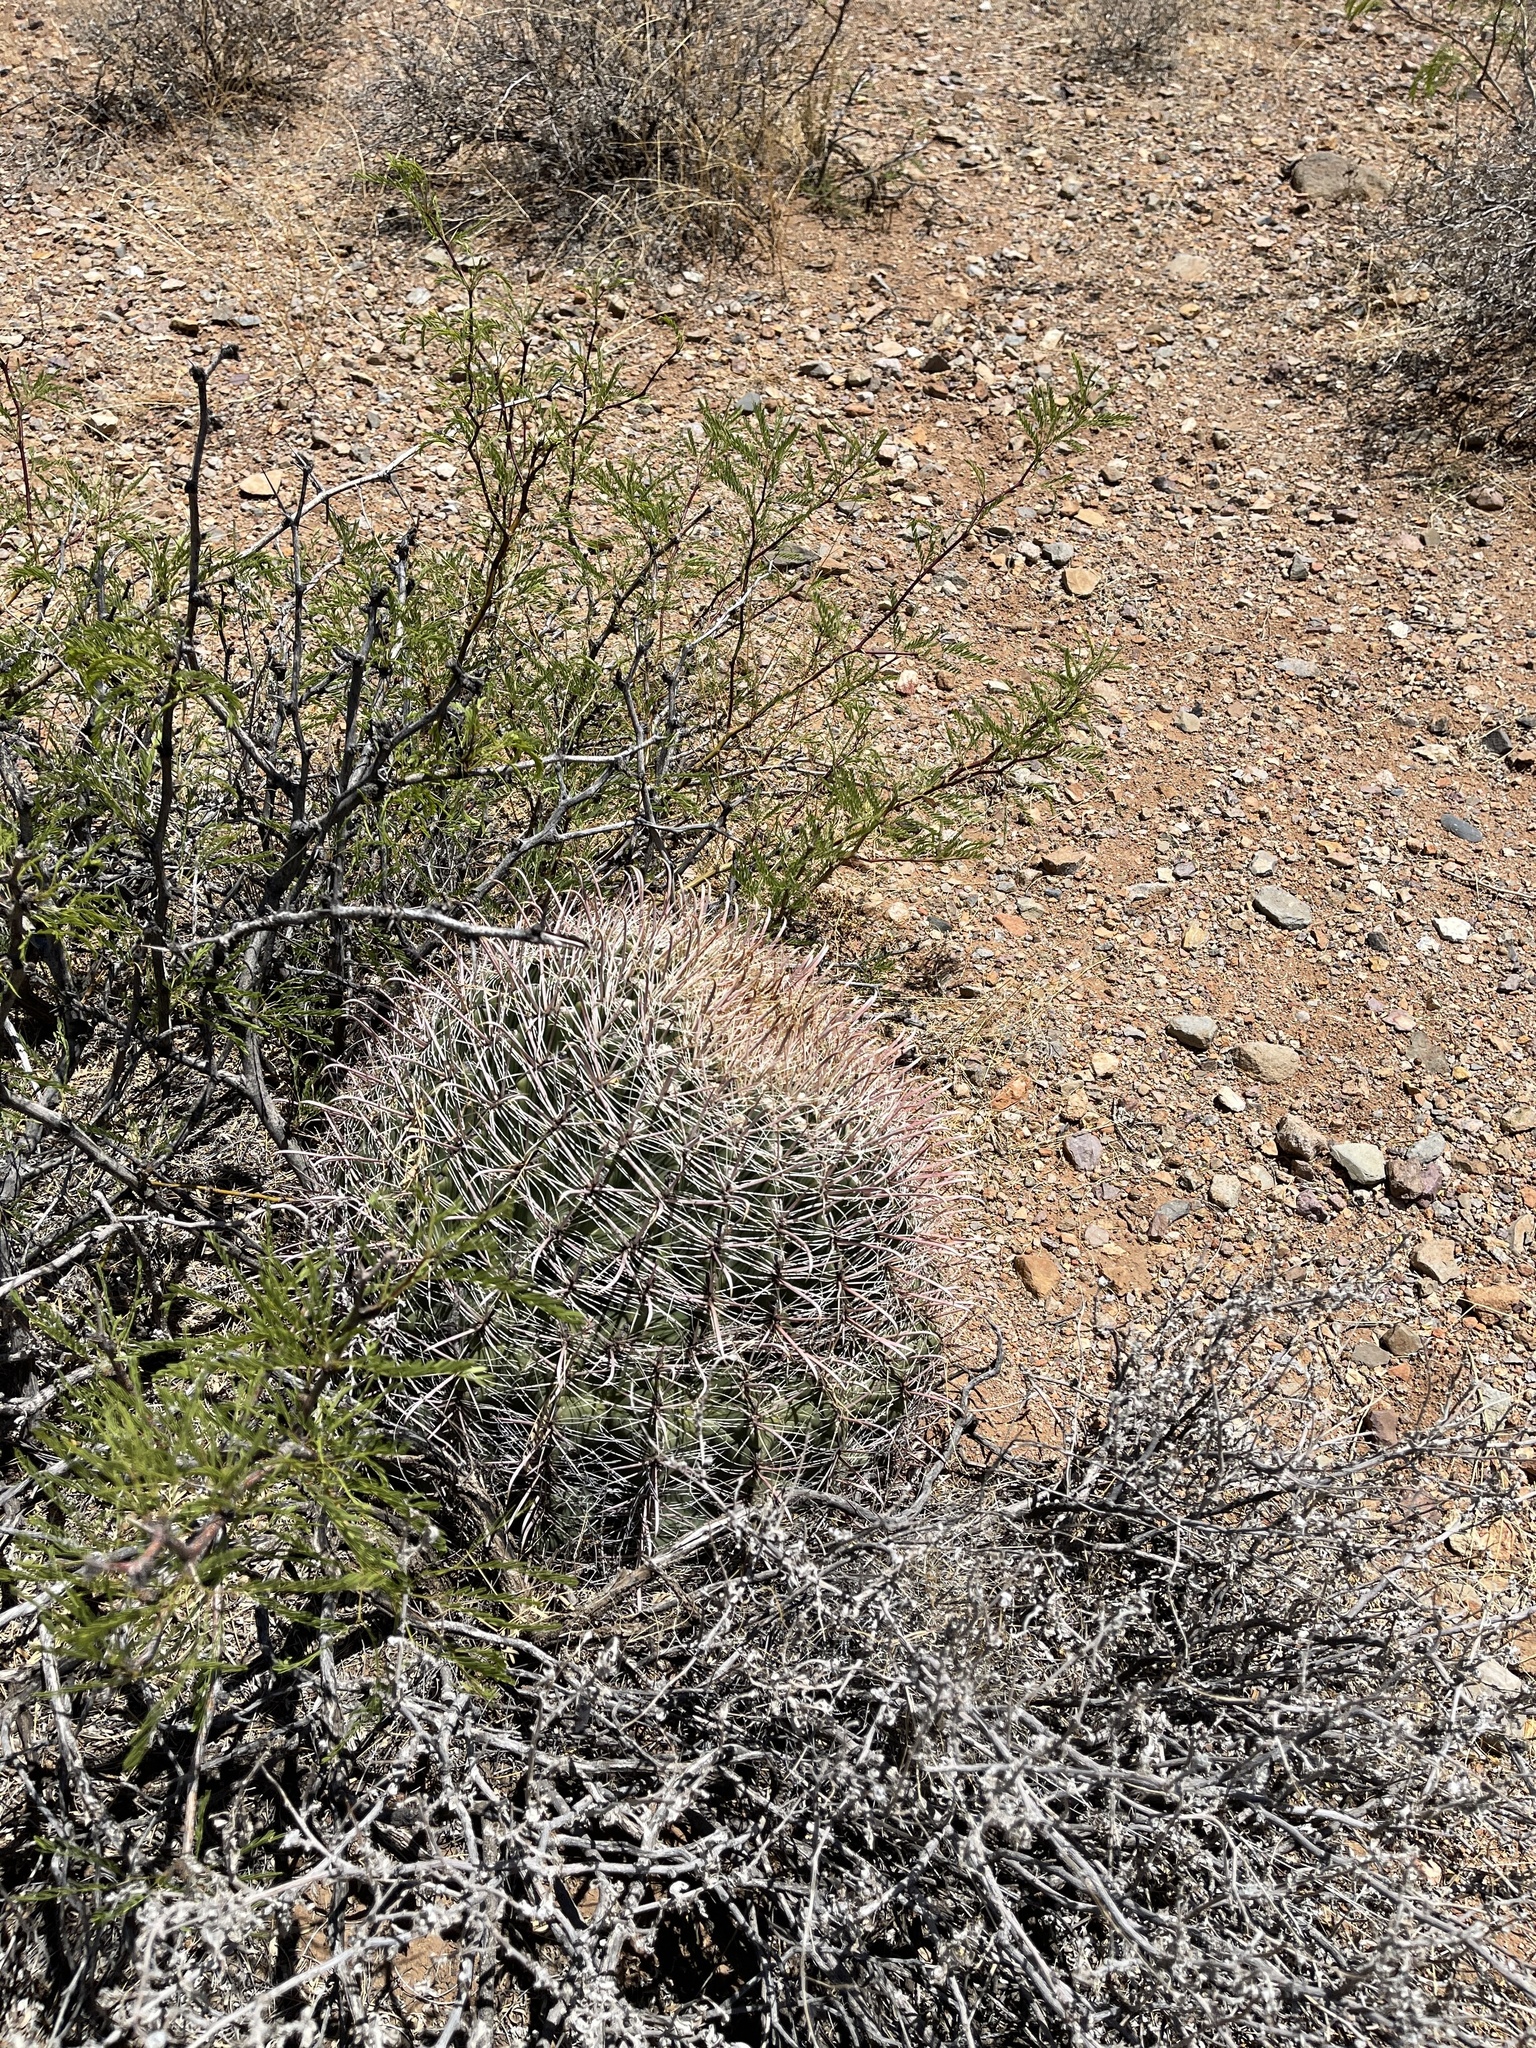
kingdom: Plantae
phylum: Tracheophyta
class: Magnoliopsida
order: Caryophyllales
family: Cactaceae
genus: Ferocactus
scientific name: Ferocactus wislizeni
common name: Candy barrel cactus
